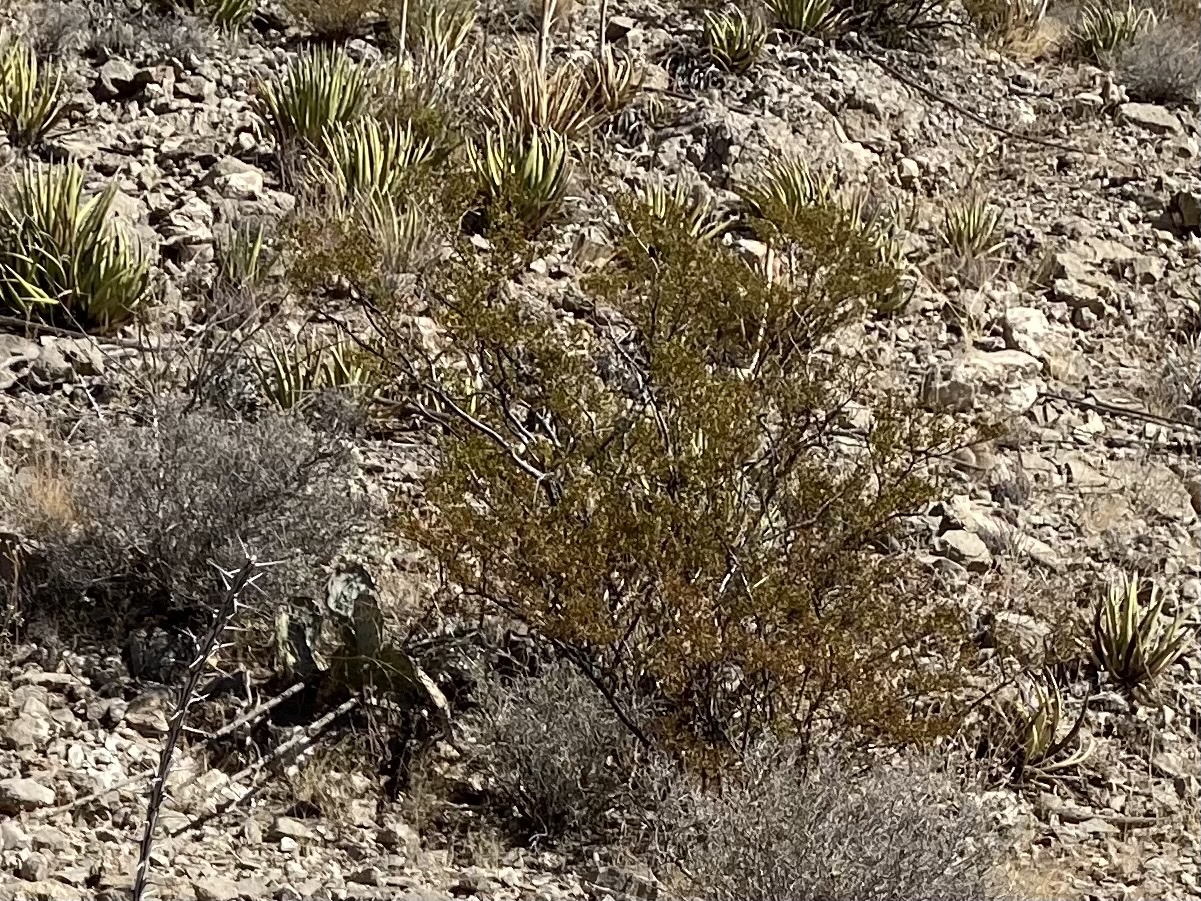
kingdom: Plantae
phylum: Tracheophyta
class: Magnoliopsida
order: Zygophyllales
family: Zygophyllaceae
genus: Larrea
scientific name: Larrea tridentata
